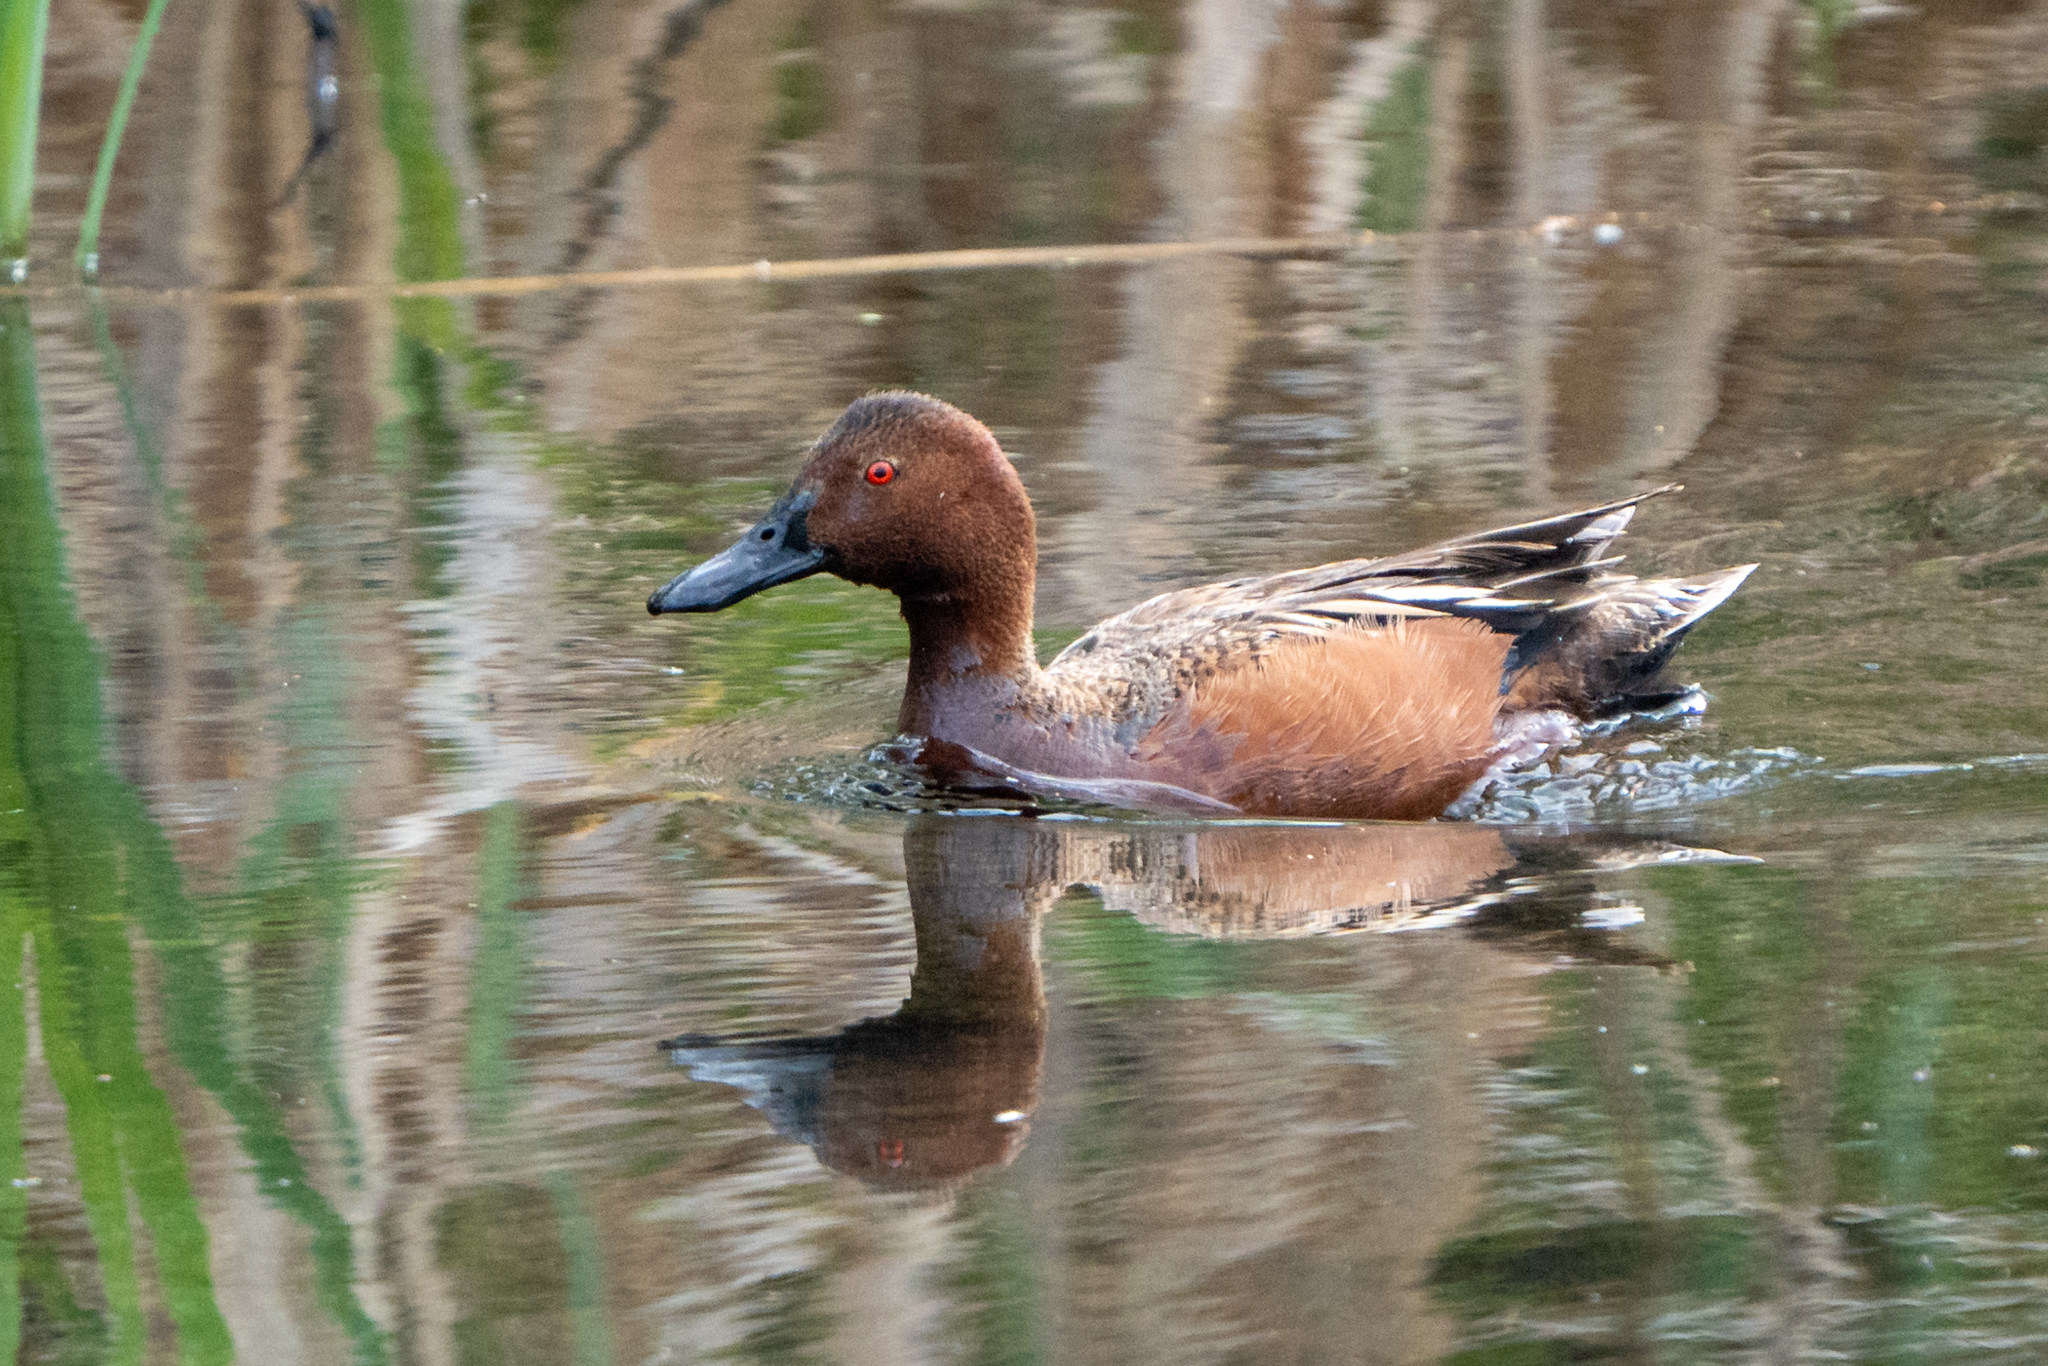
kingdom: Animalia
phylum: Chordata
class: Aves
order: Anseriformes
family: Anatidae
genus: Spatula
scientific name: Spatula cyanoptera
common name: Cinnamon teal
